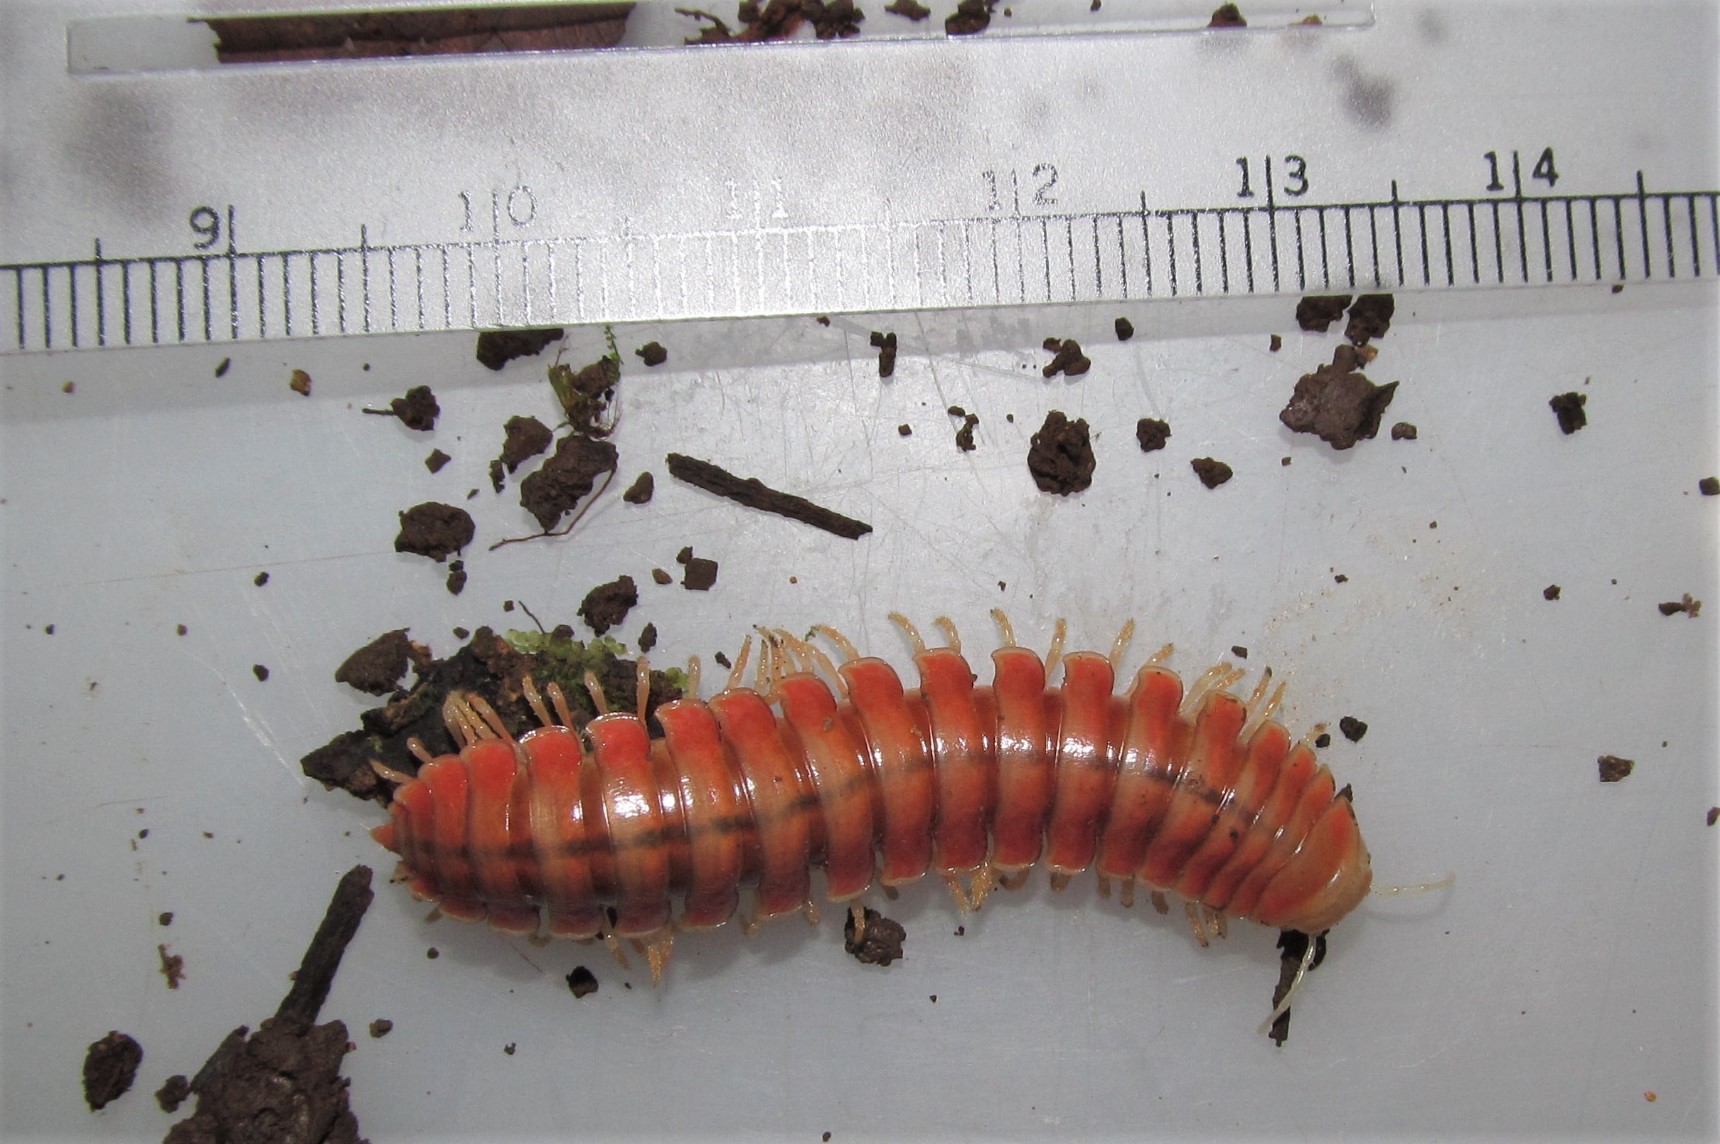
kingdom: Animalia
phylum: Arthropoda
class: Diplopoda
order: Polydesmida
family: Xystodesmidae
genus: Rhysodesmus
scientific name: Rhysodesmus zapotecus
